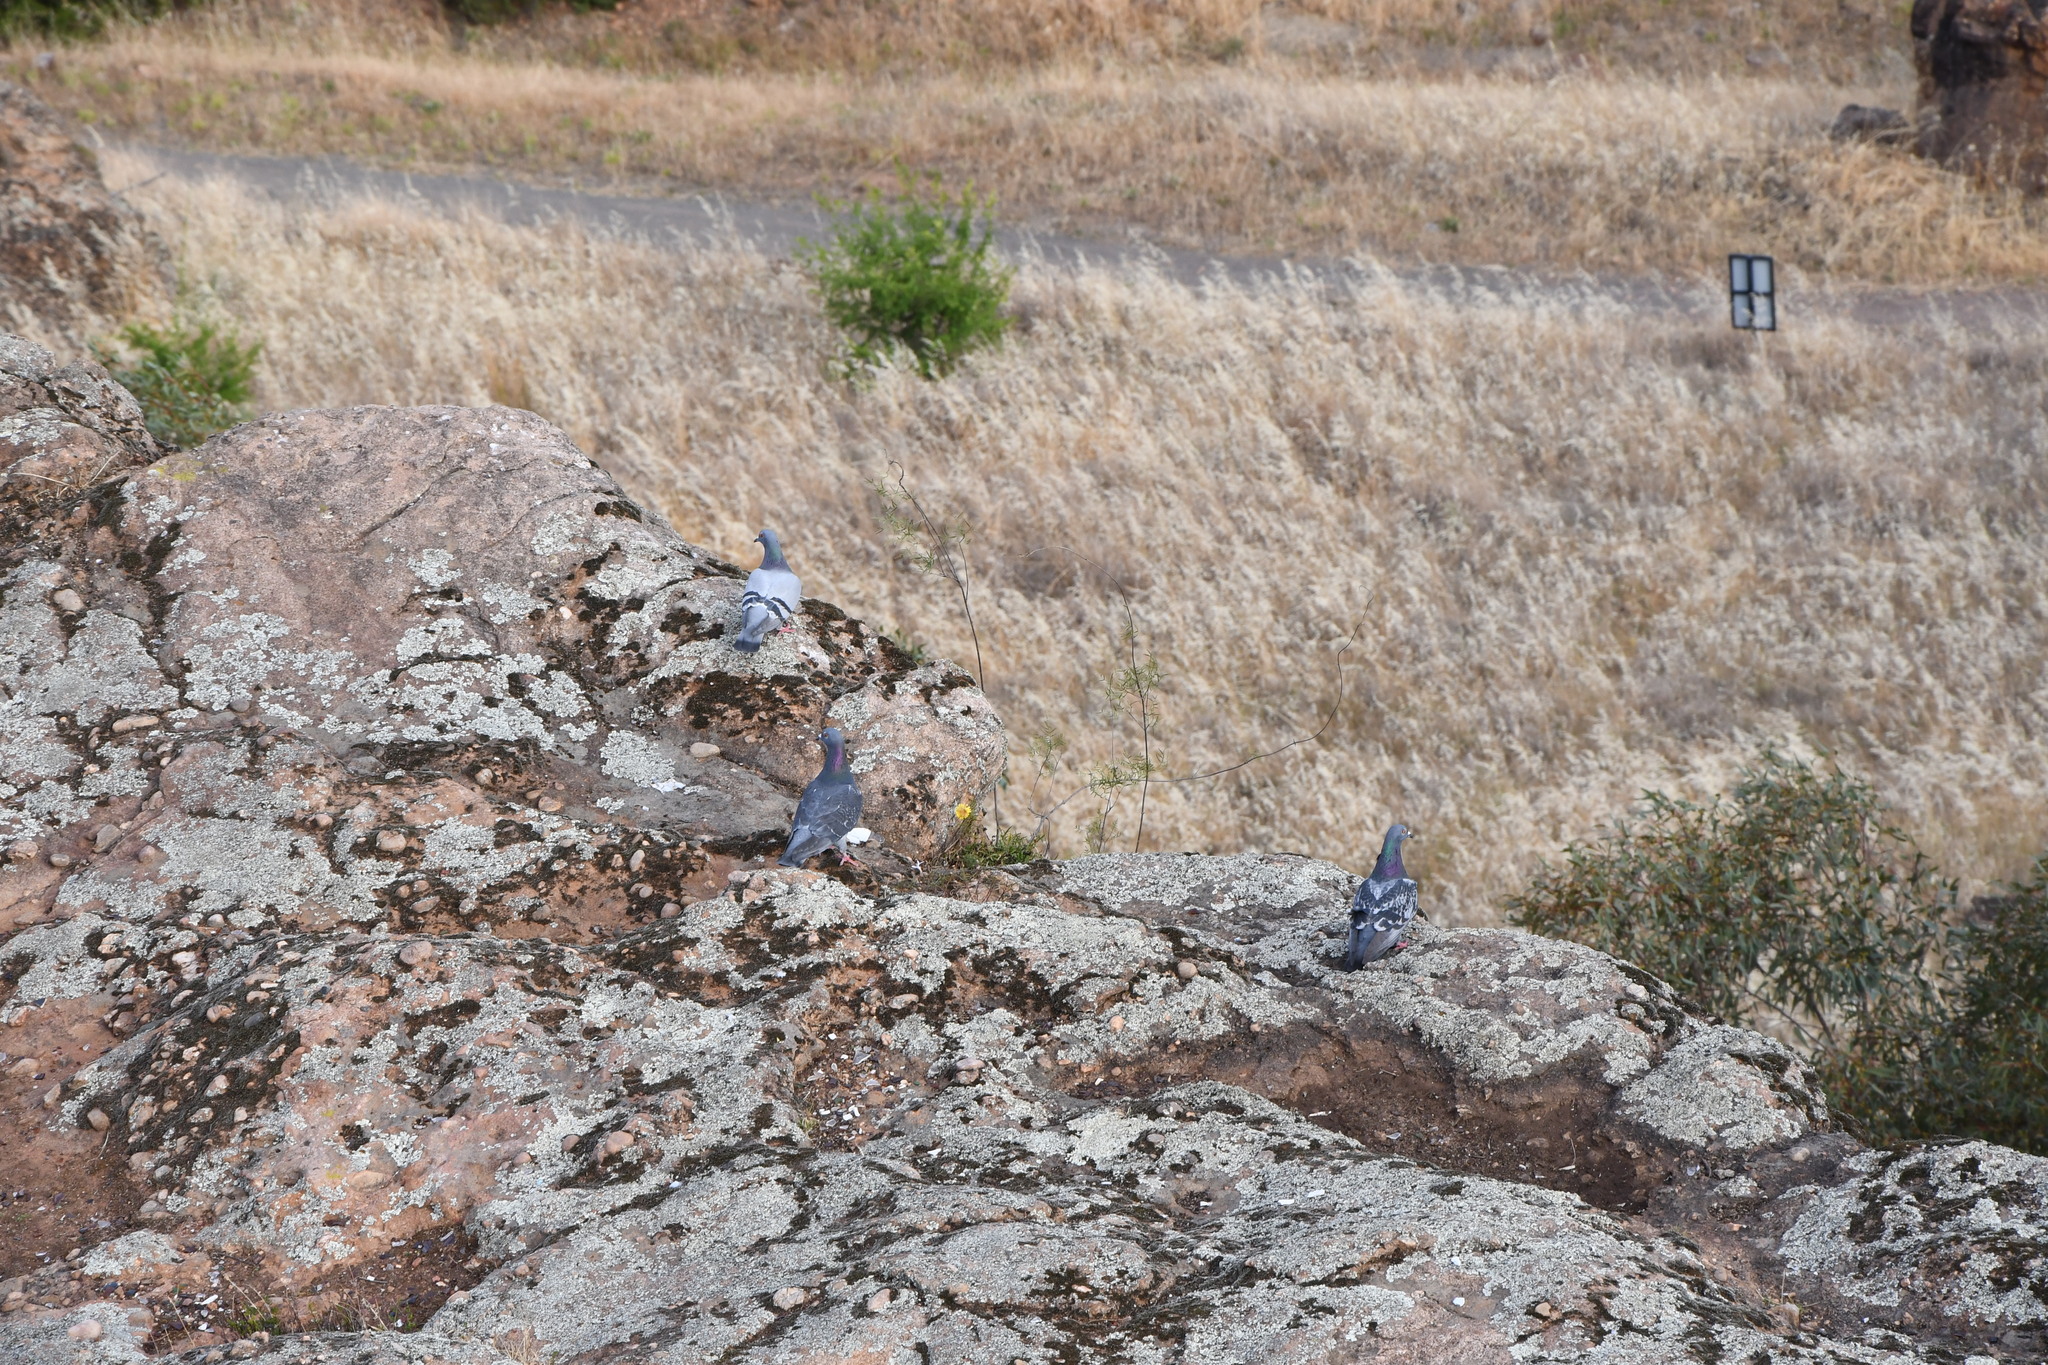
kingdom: Animalia
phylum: Chordata
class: Aves
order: Columbiformes
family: Columbidae
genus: Columba
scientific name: Columba livia
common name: Rock pigeon
